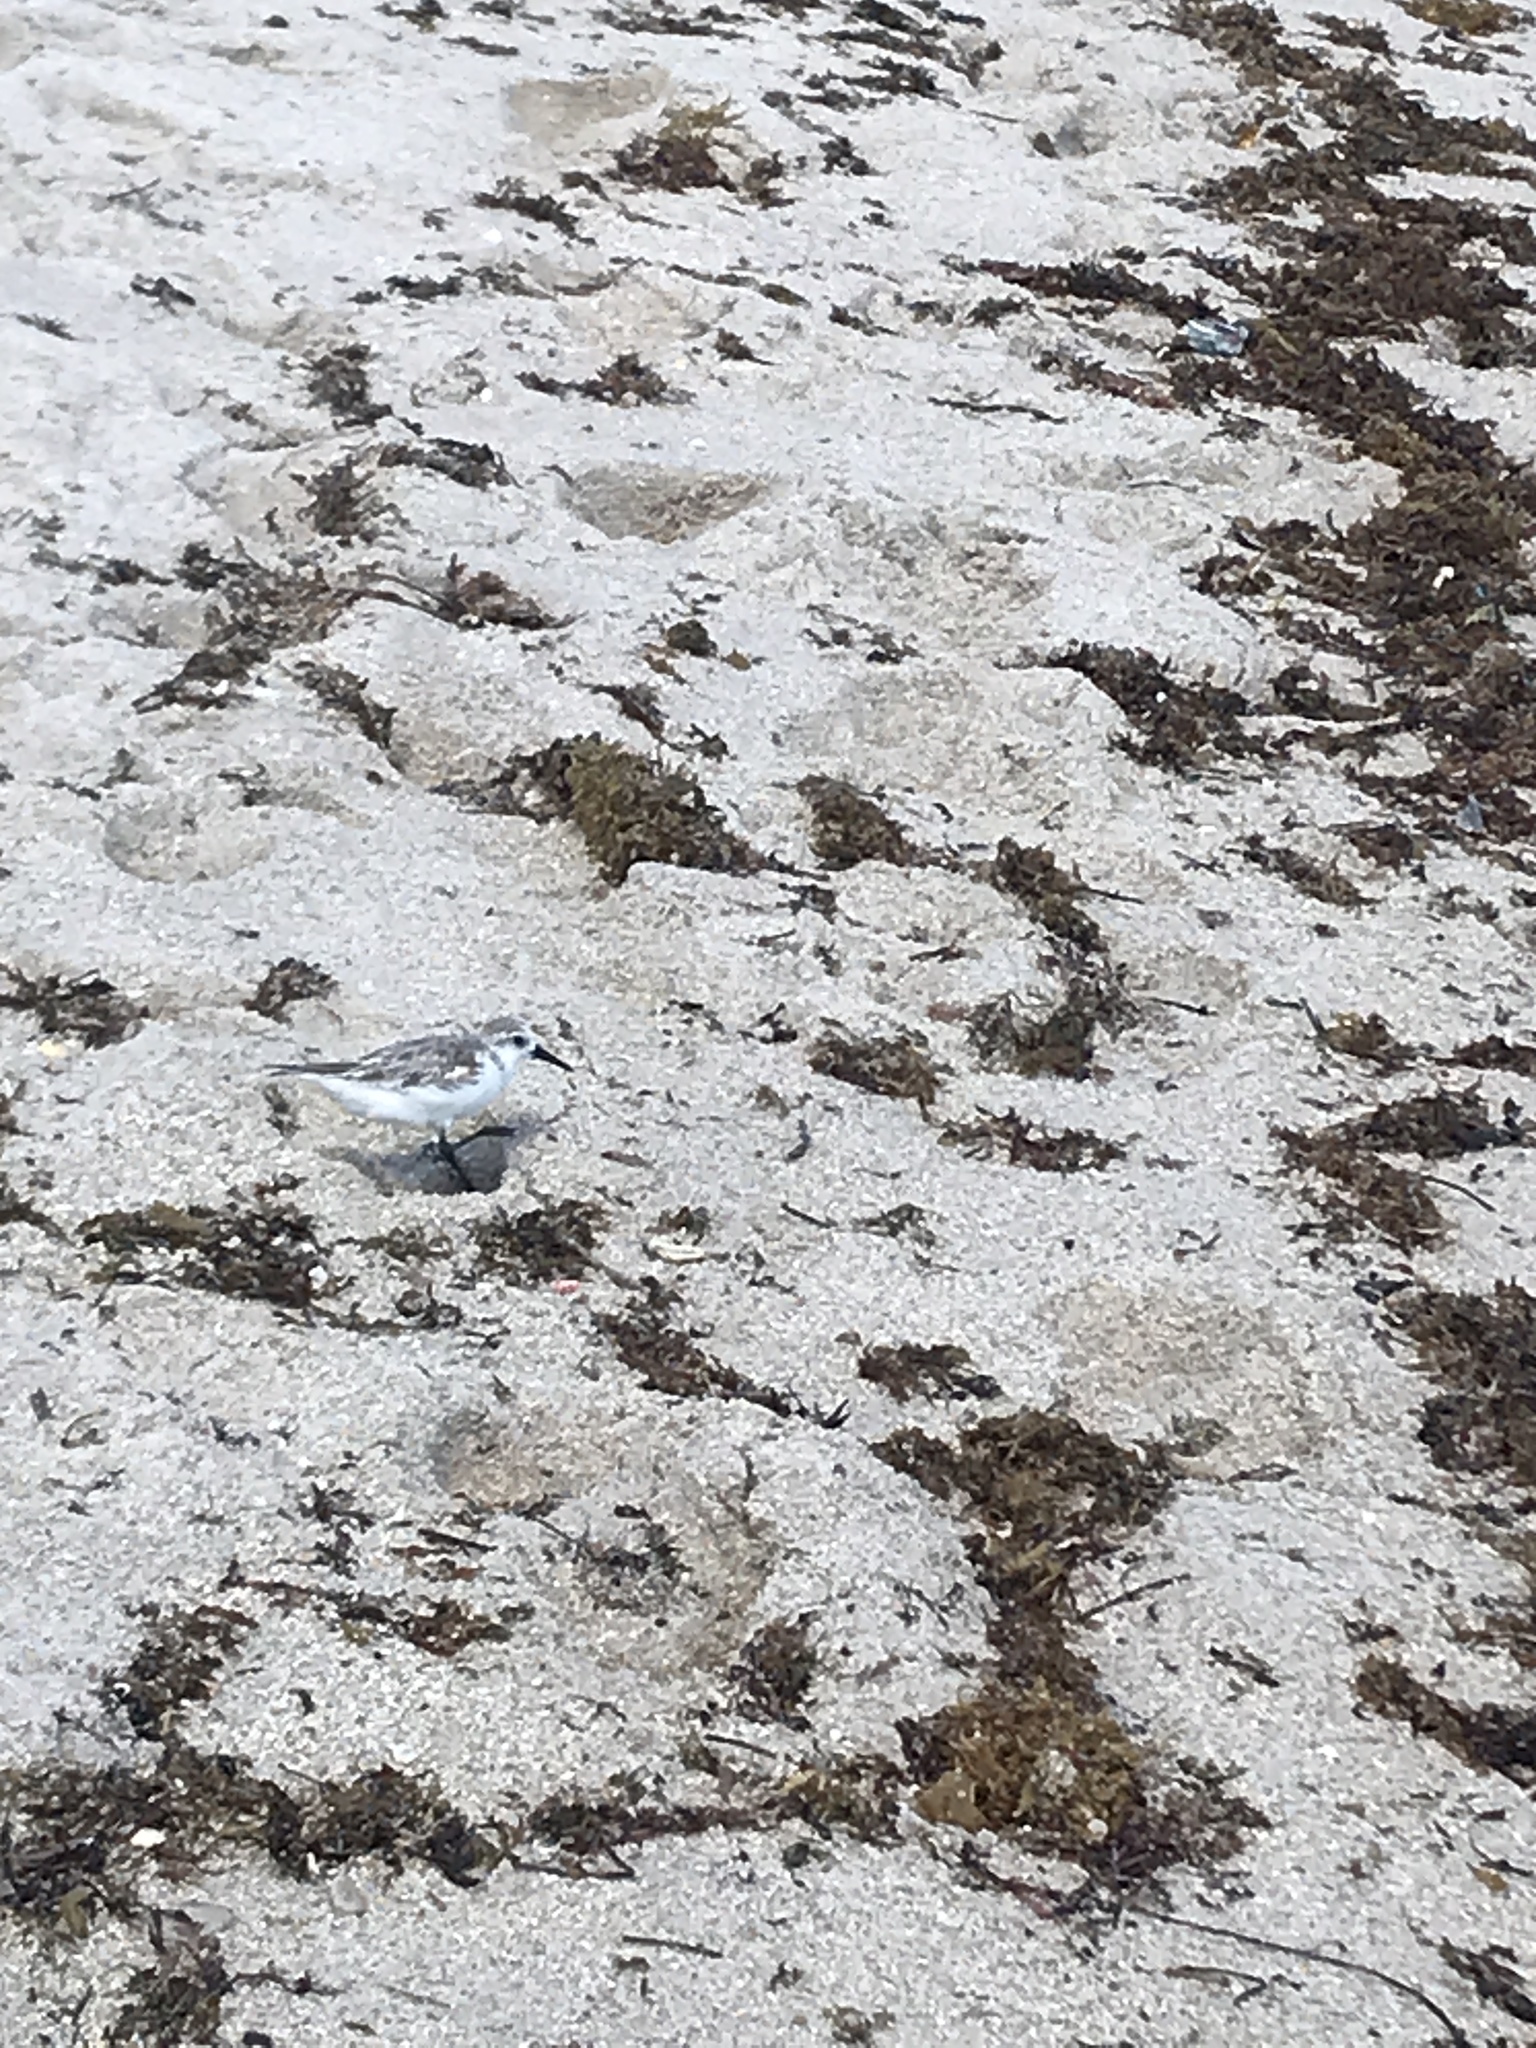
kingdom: Animalia
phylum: Chordata
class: Aves
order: Charadriiformes
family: Scolopacidae
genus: Calidris
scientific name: Calidris alba
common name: Sanderling
